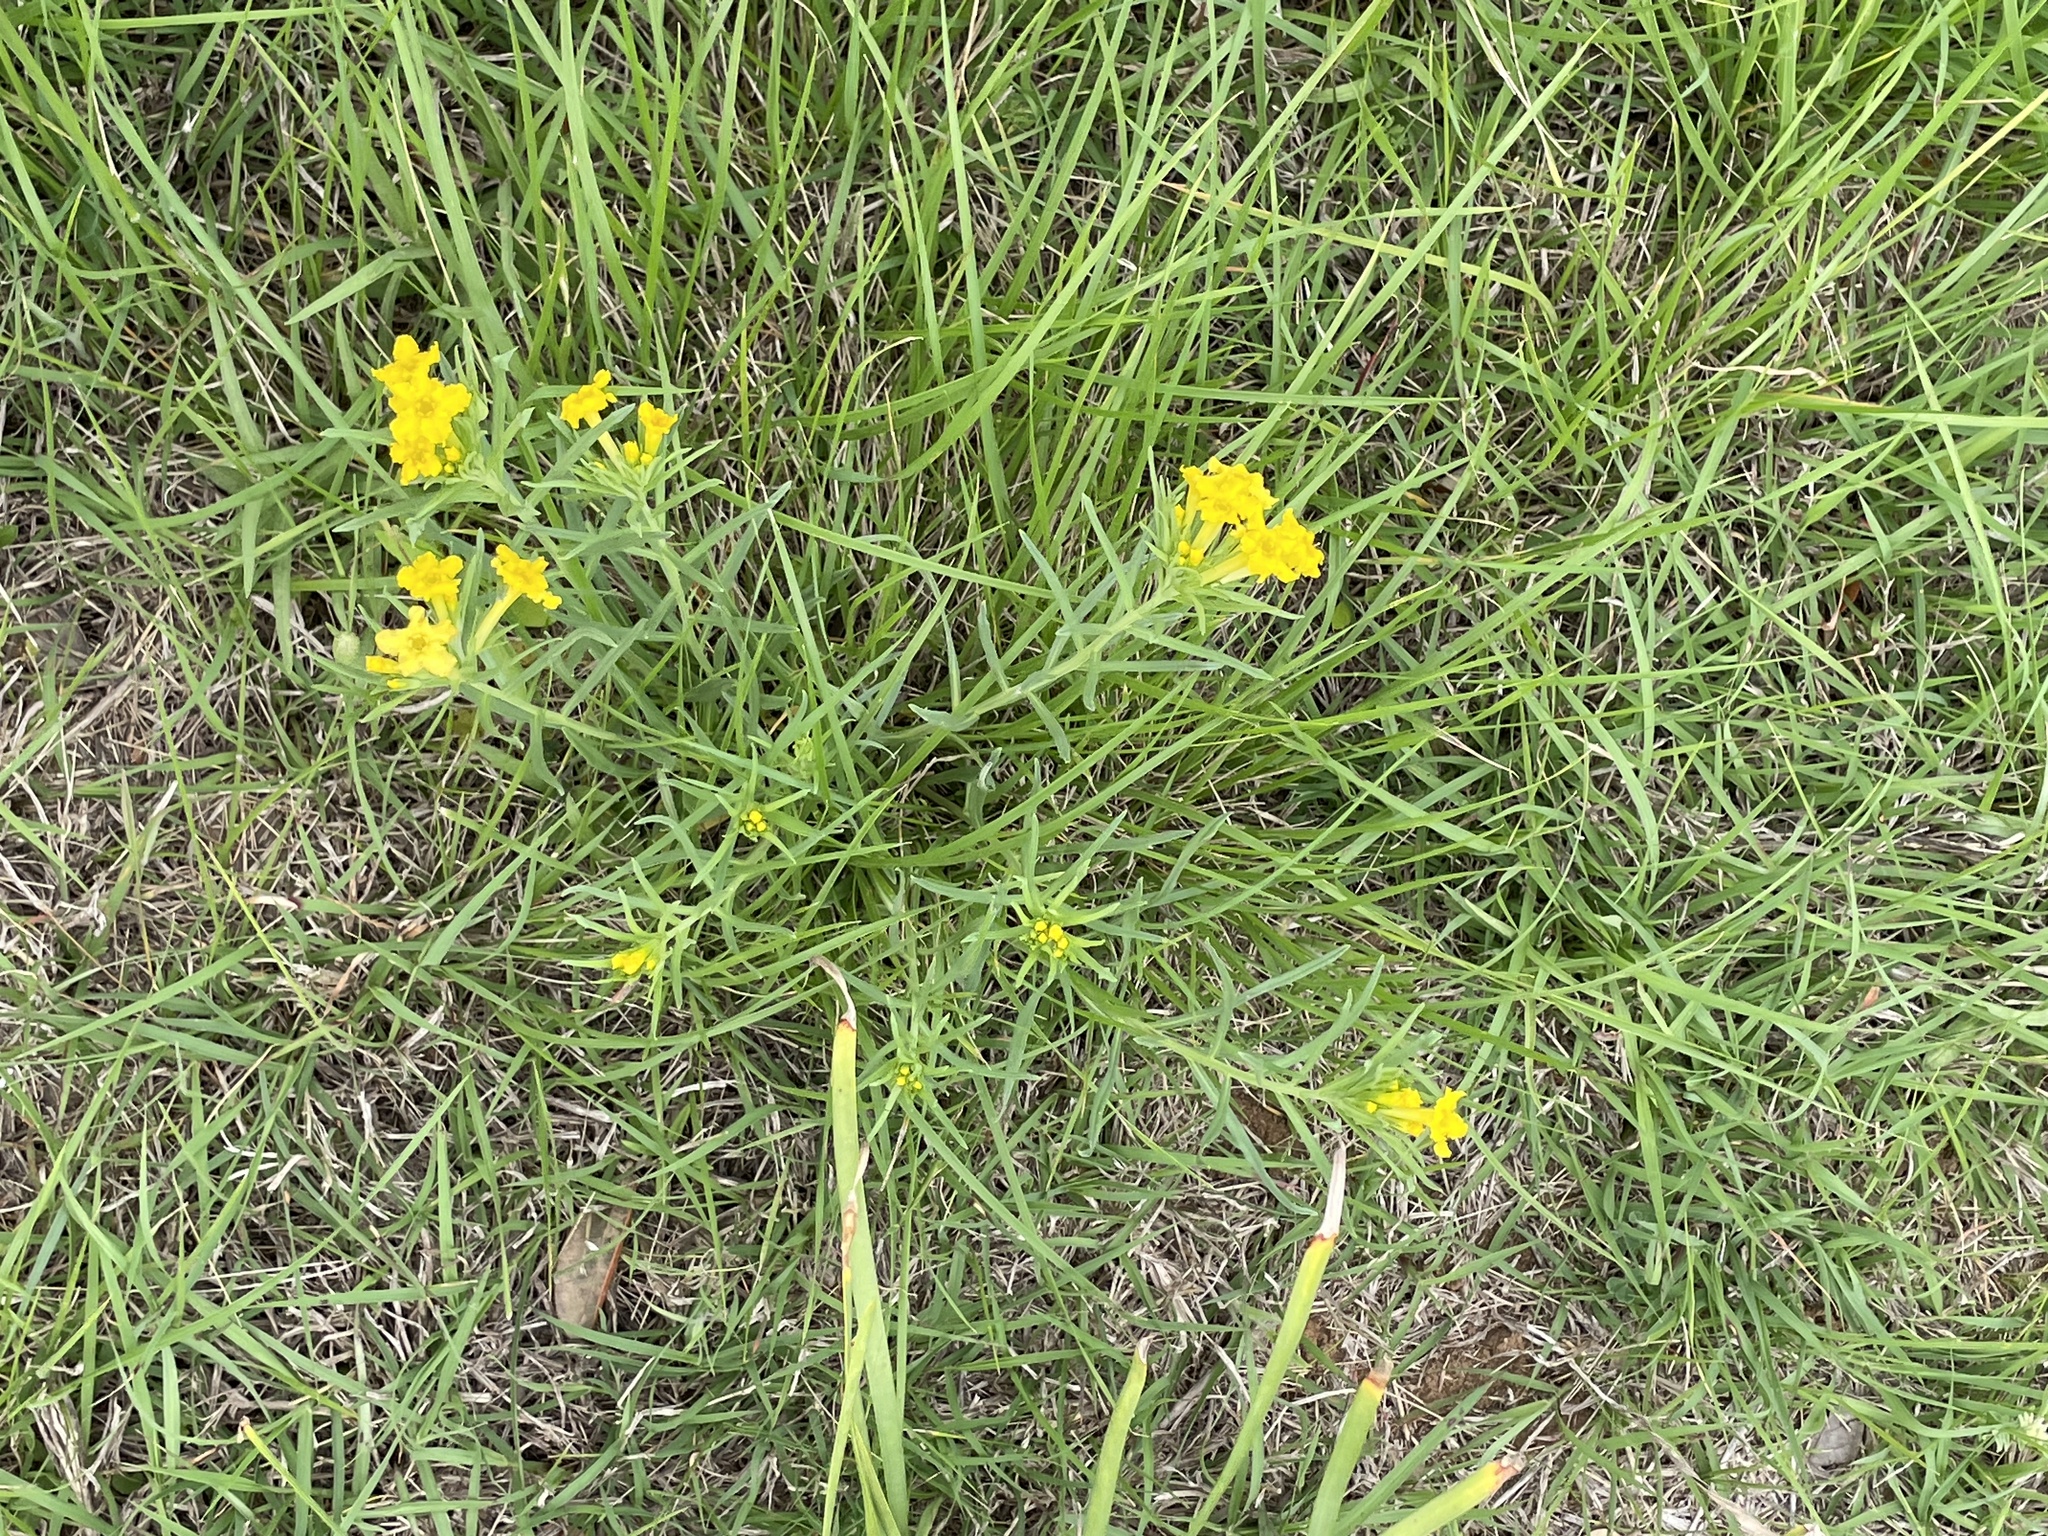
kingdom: Plantae
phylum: Tracheophyta
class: Magnoliopsida
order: Boraginales
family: Boraginaceae
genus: Lithospermum
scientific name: Lithospermum incisum
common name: Fringed gromwell
